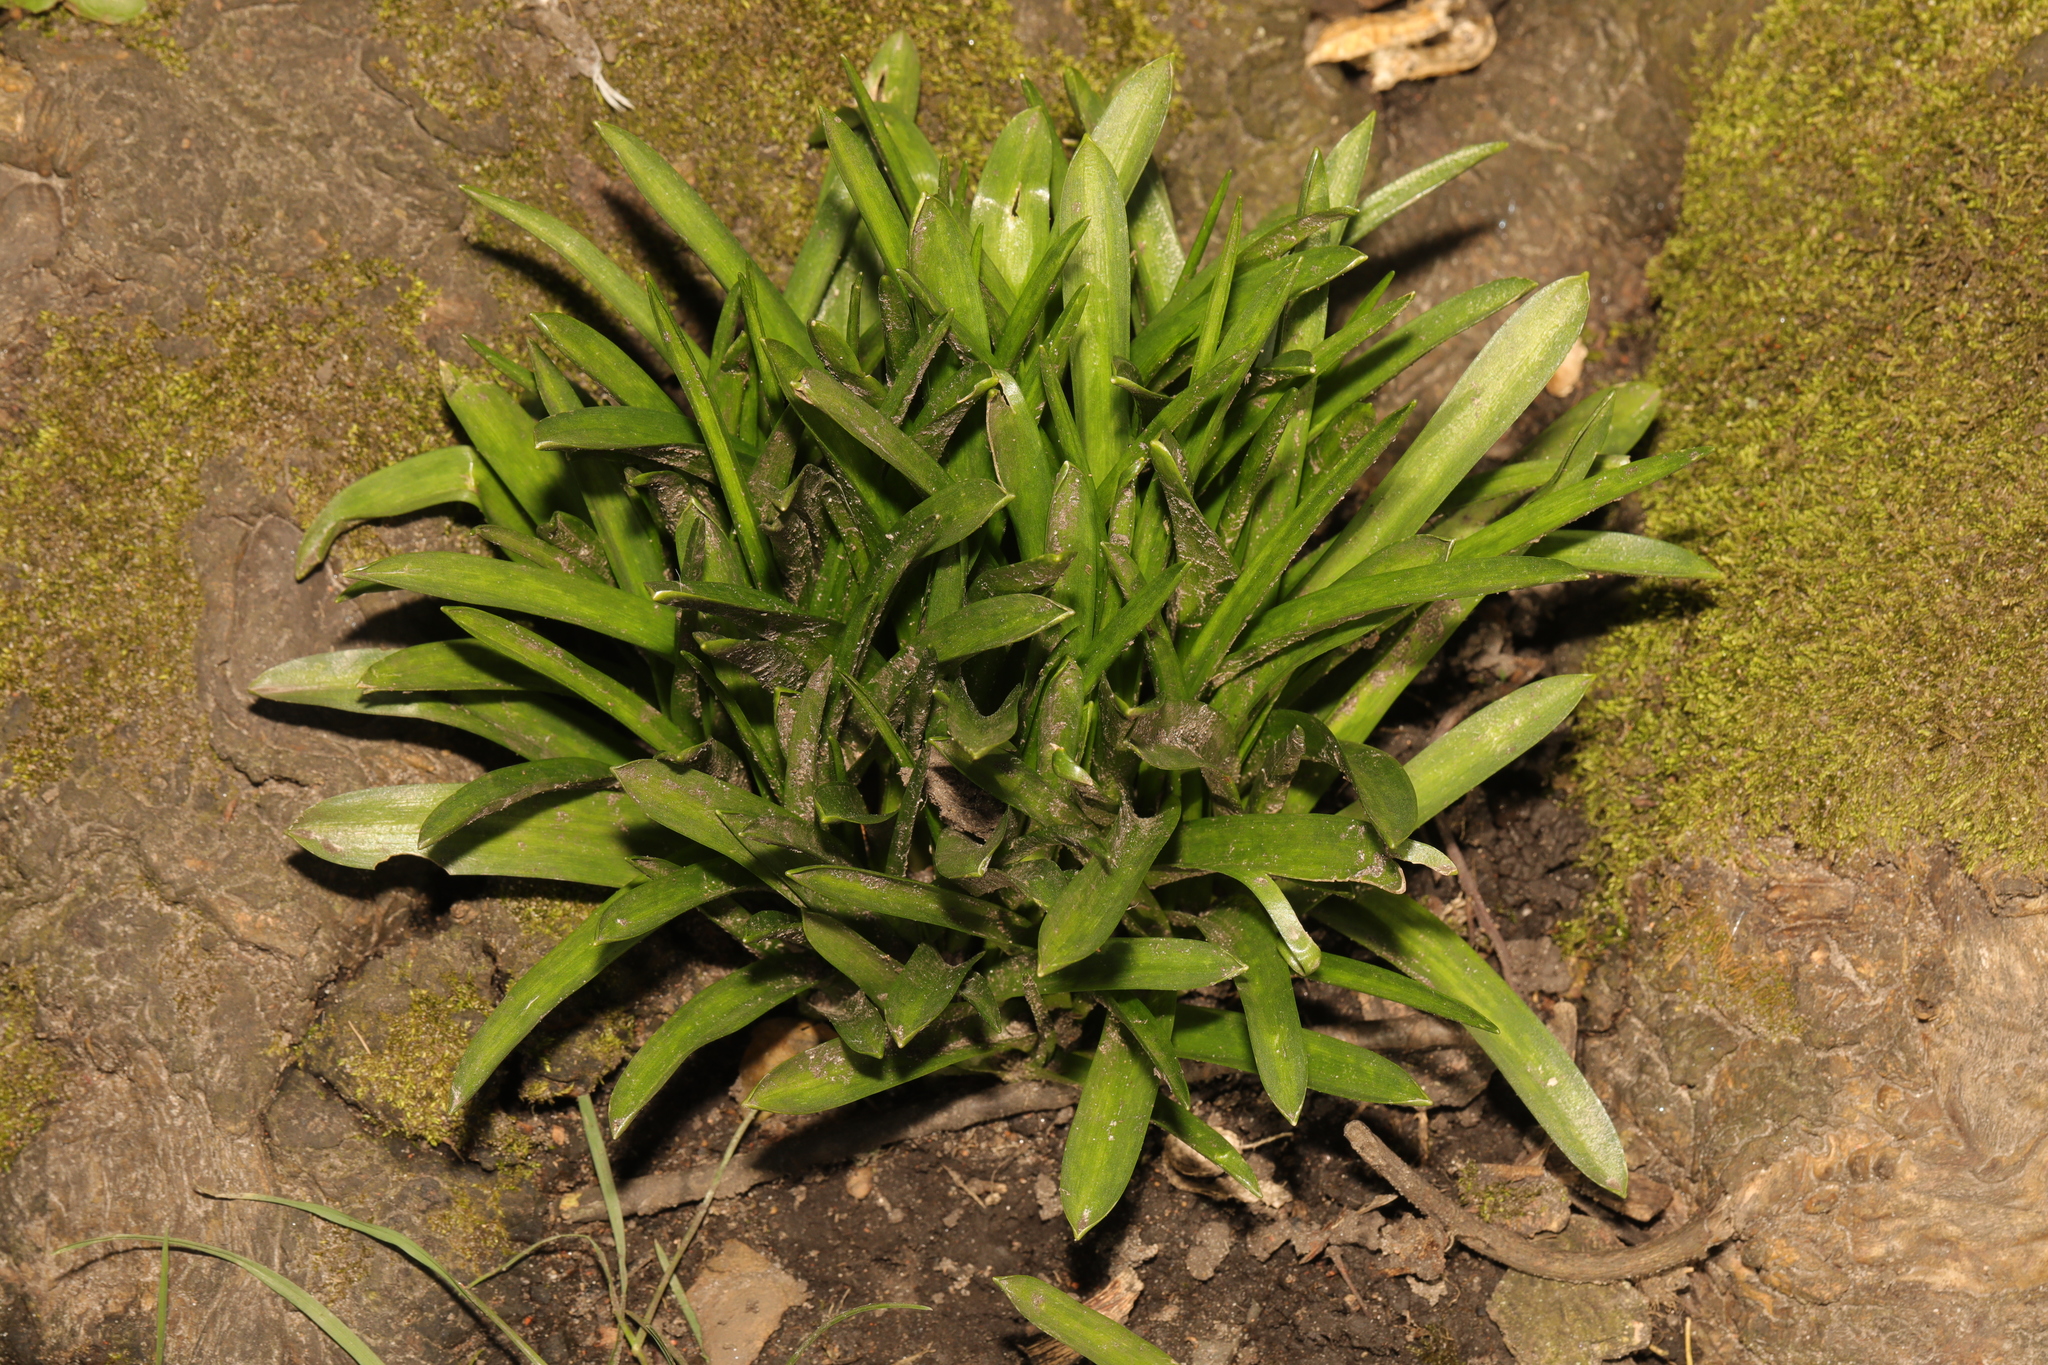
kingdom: Plantae
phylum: Tracheophyta
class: Liliopsida
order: Asparagales
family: Asparagaceae
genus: Hyacinthoides
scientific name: Hyacinthoides massartiana
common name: Hyacinthoides
